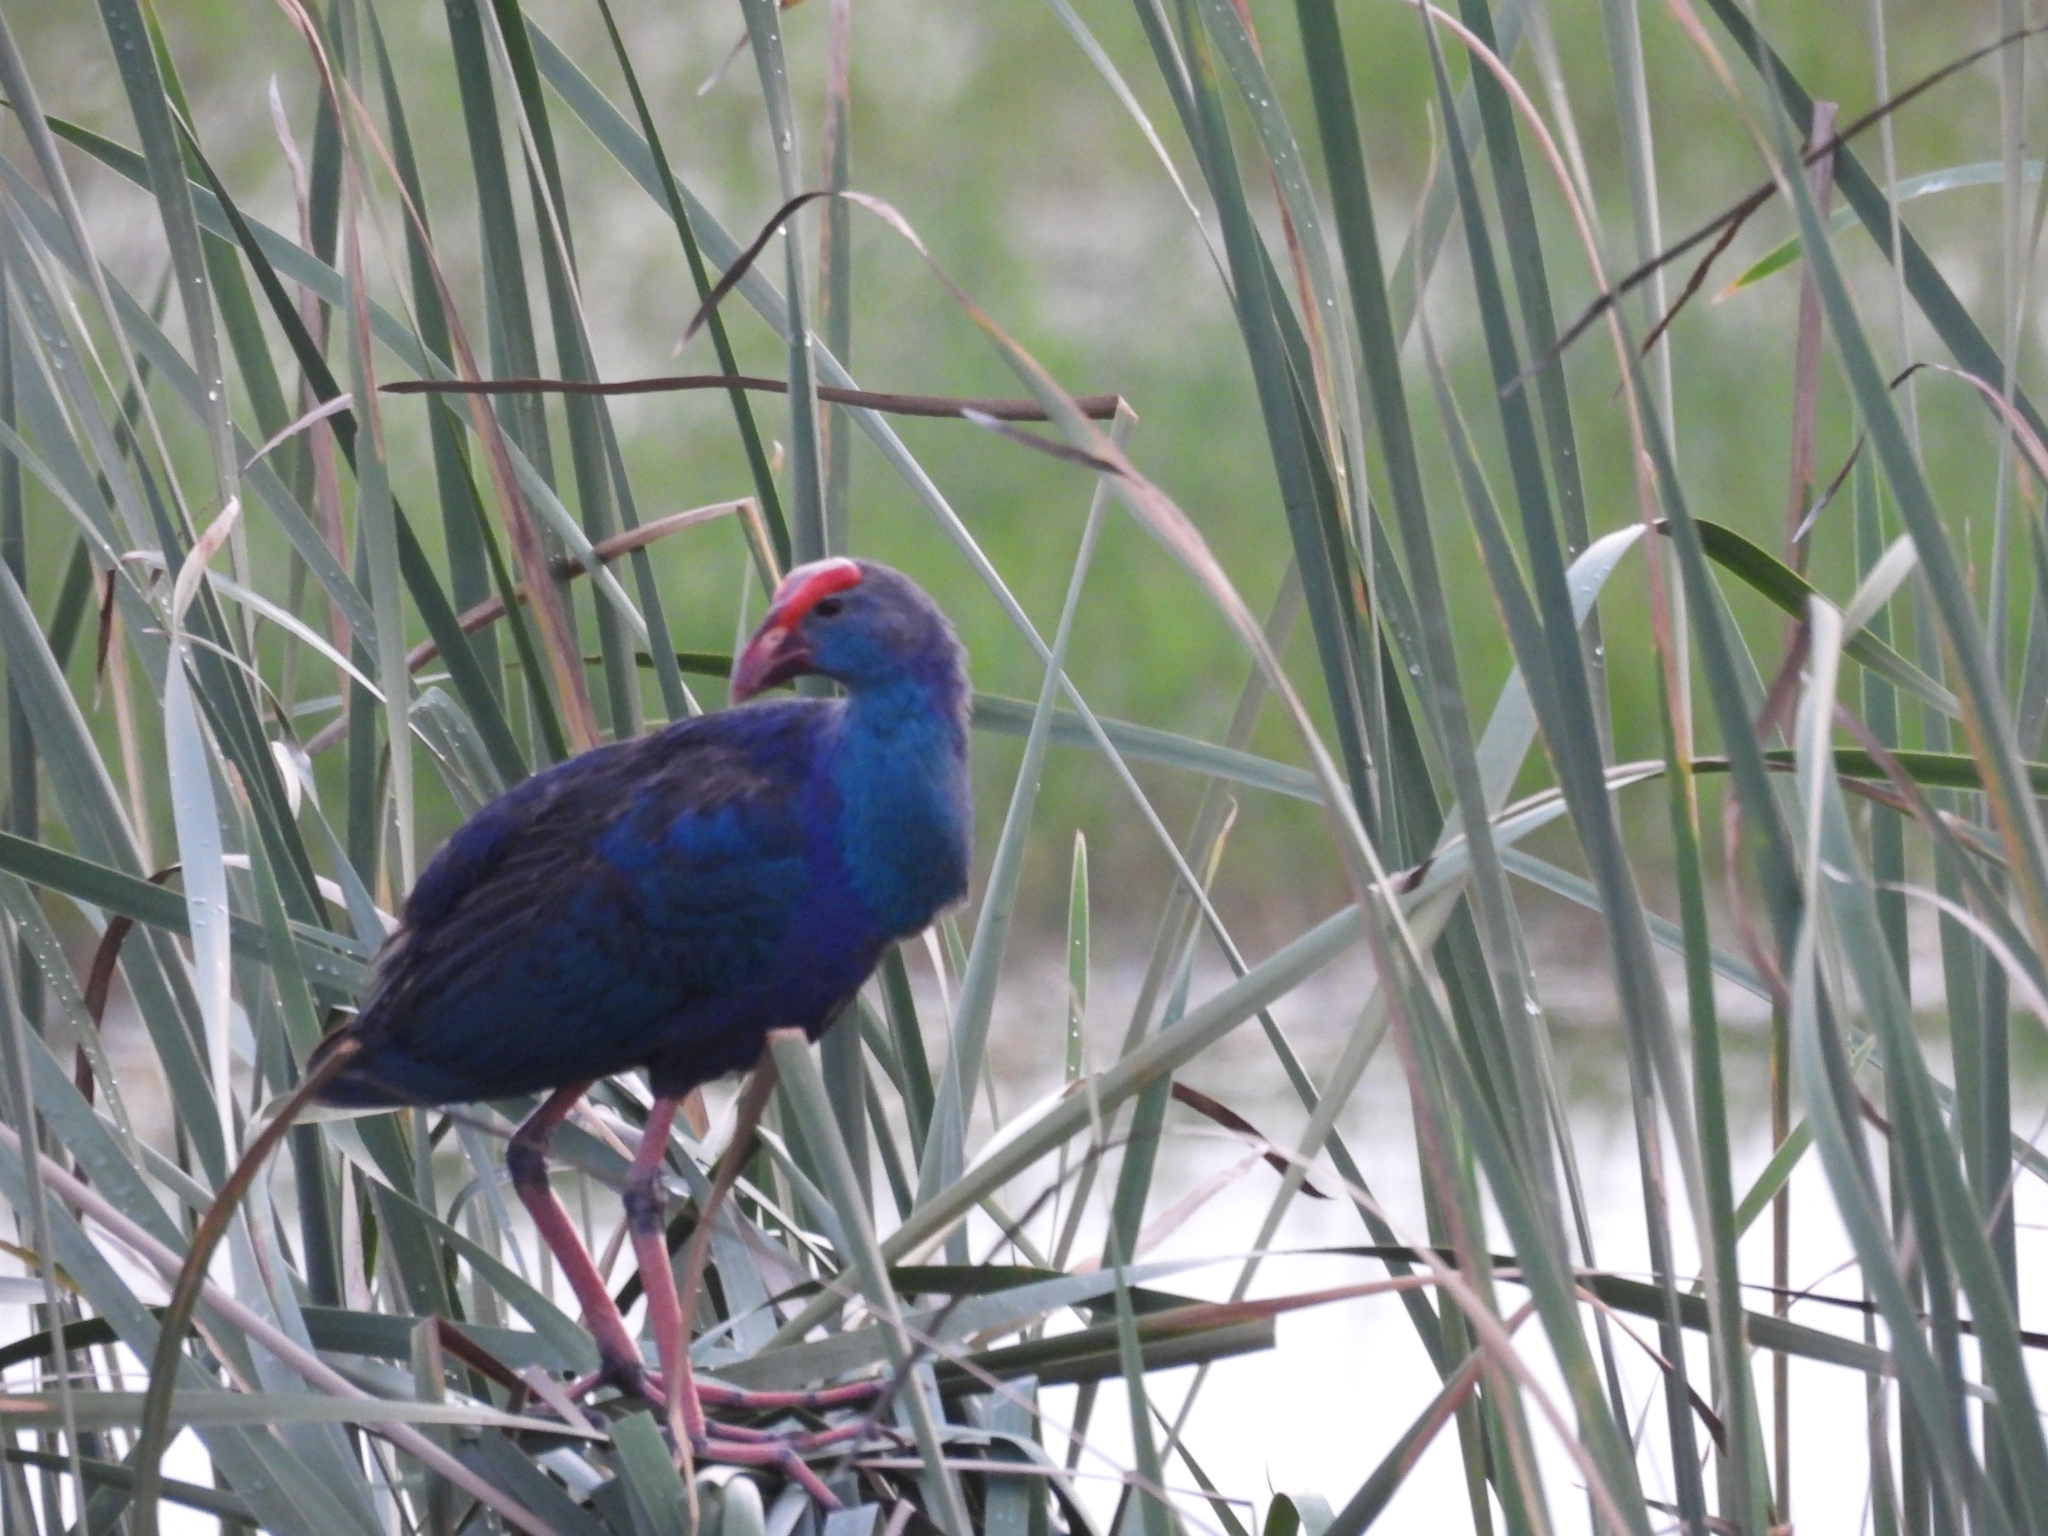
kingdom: Animalia
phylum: Chordata
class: Aves
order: Gruiformes
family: Rallidae
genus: Porphyrio
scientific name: Porphyrio porphyrio
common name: Purple swamphen
